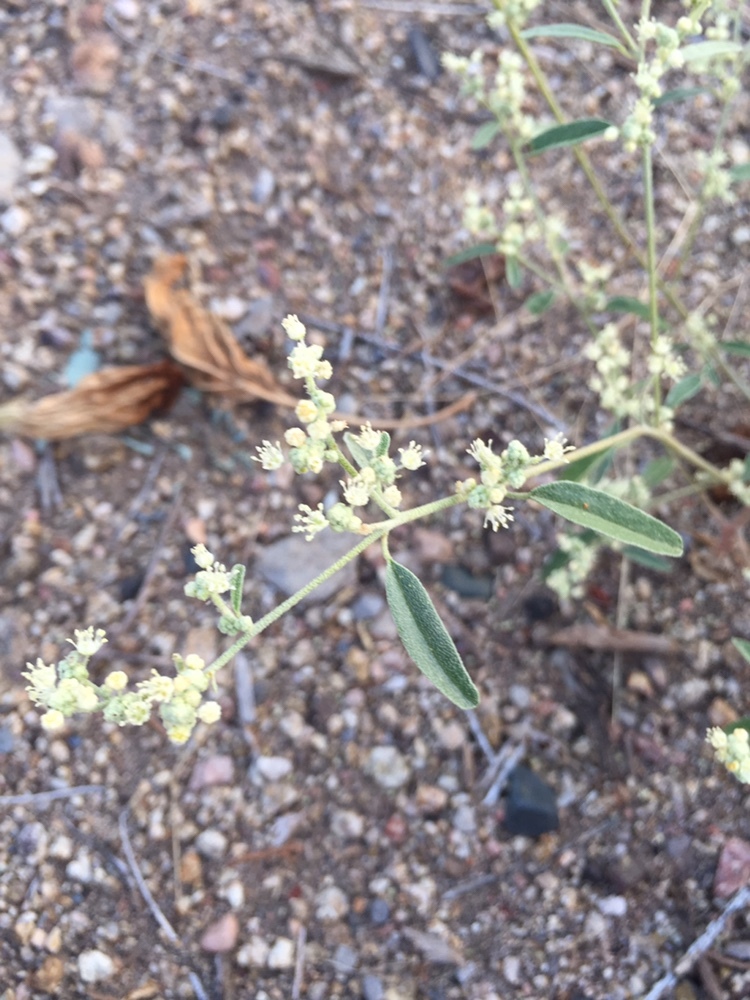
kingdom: Plantae
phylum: Tracheophyta
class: Magnoliopsida
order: Malpighiales
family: Euphorbiaceae
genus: Croton
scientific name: Croton texensis
